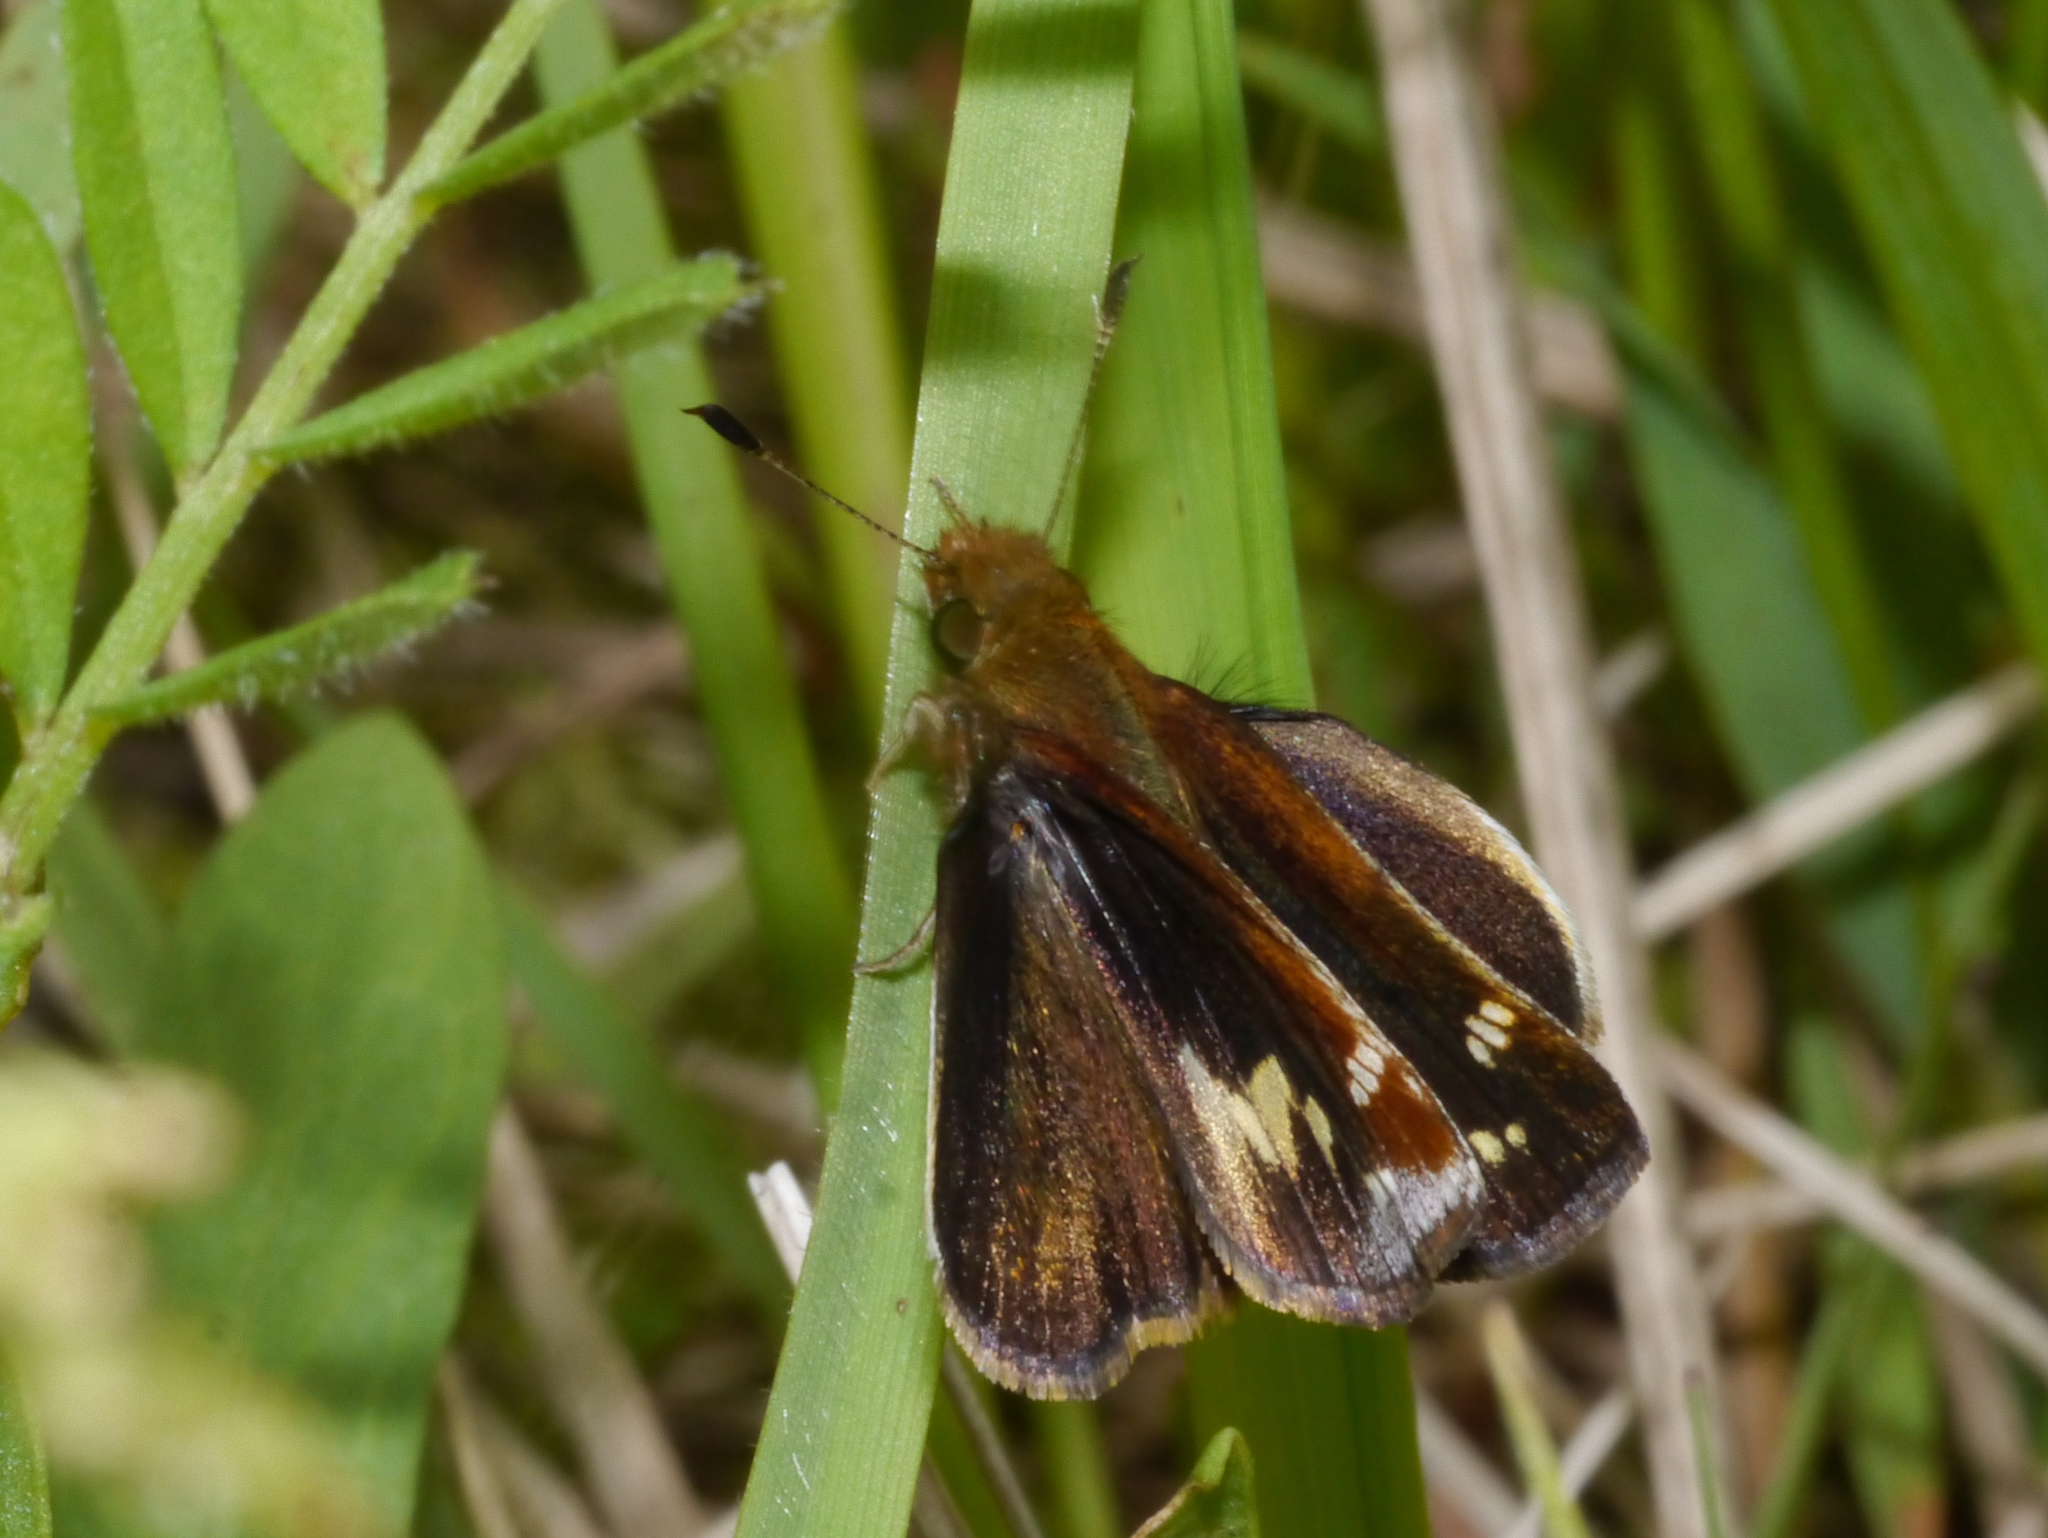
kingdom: Animalia
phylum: Arthropoda
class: Insecta
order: Lepidoptera
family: Hesperiidae
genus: Lon
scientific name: Lon zabulon
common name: Zabulon skipper
